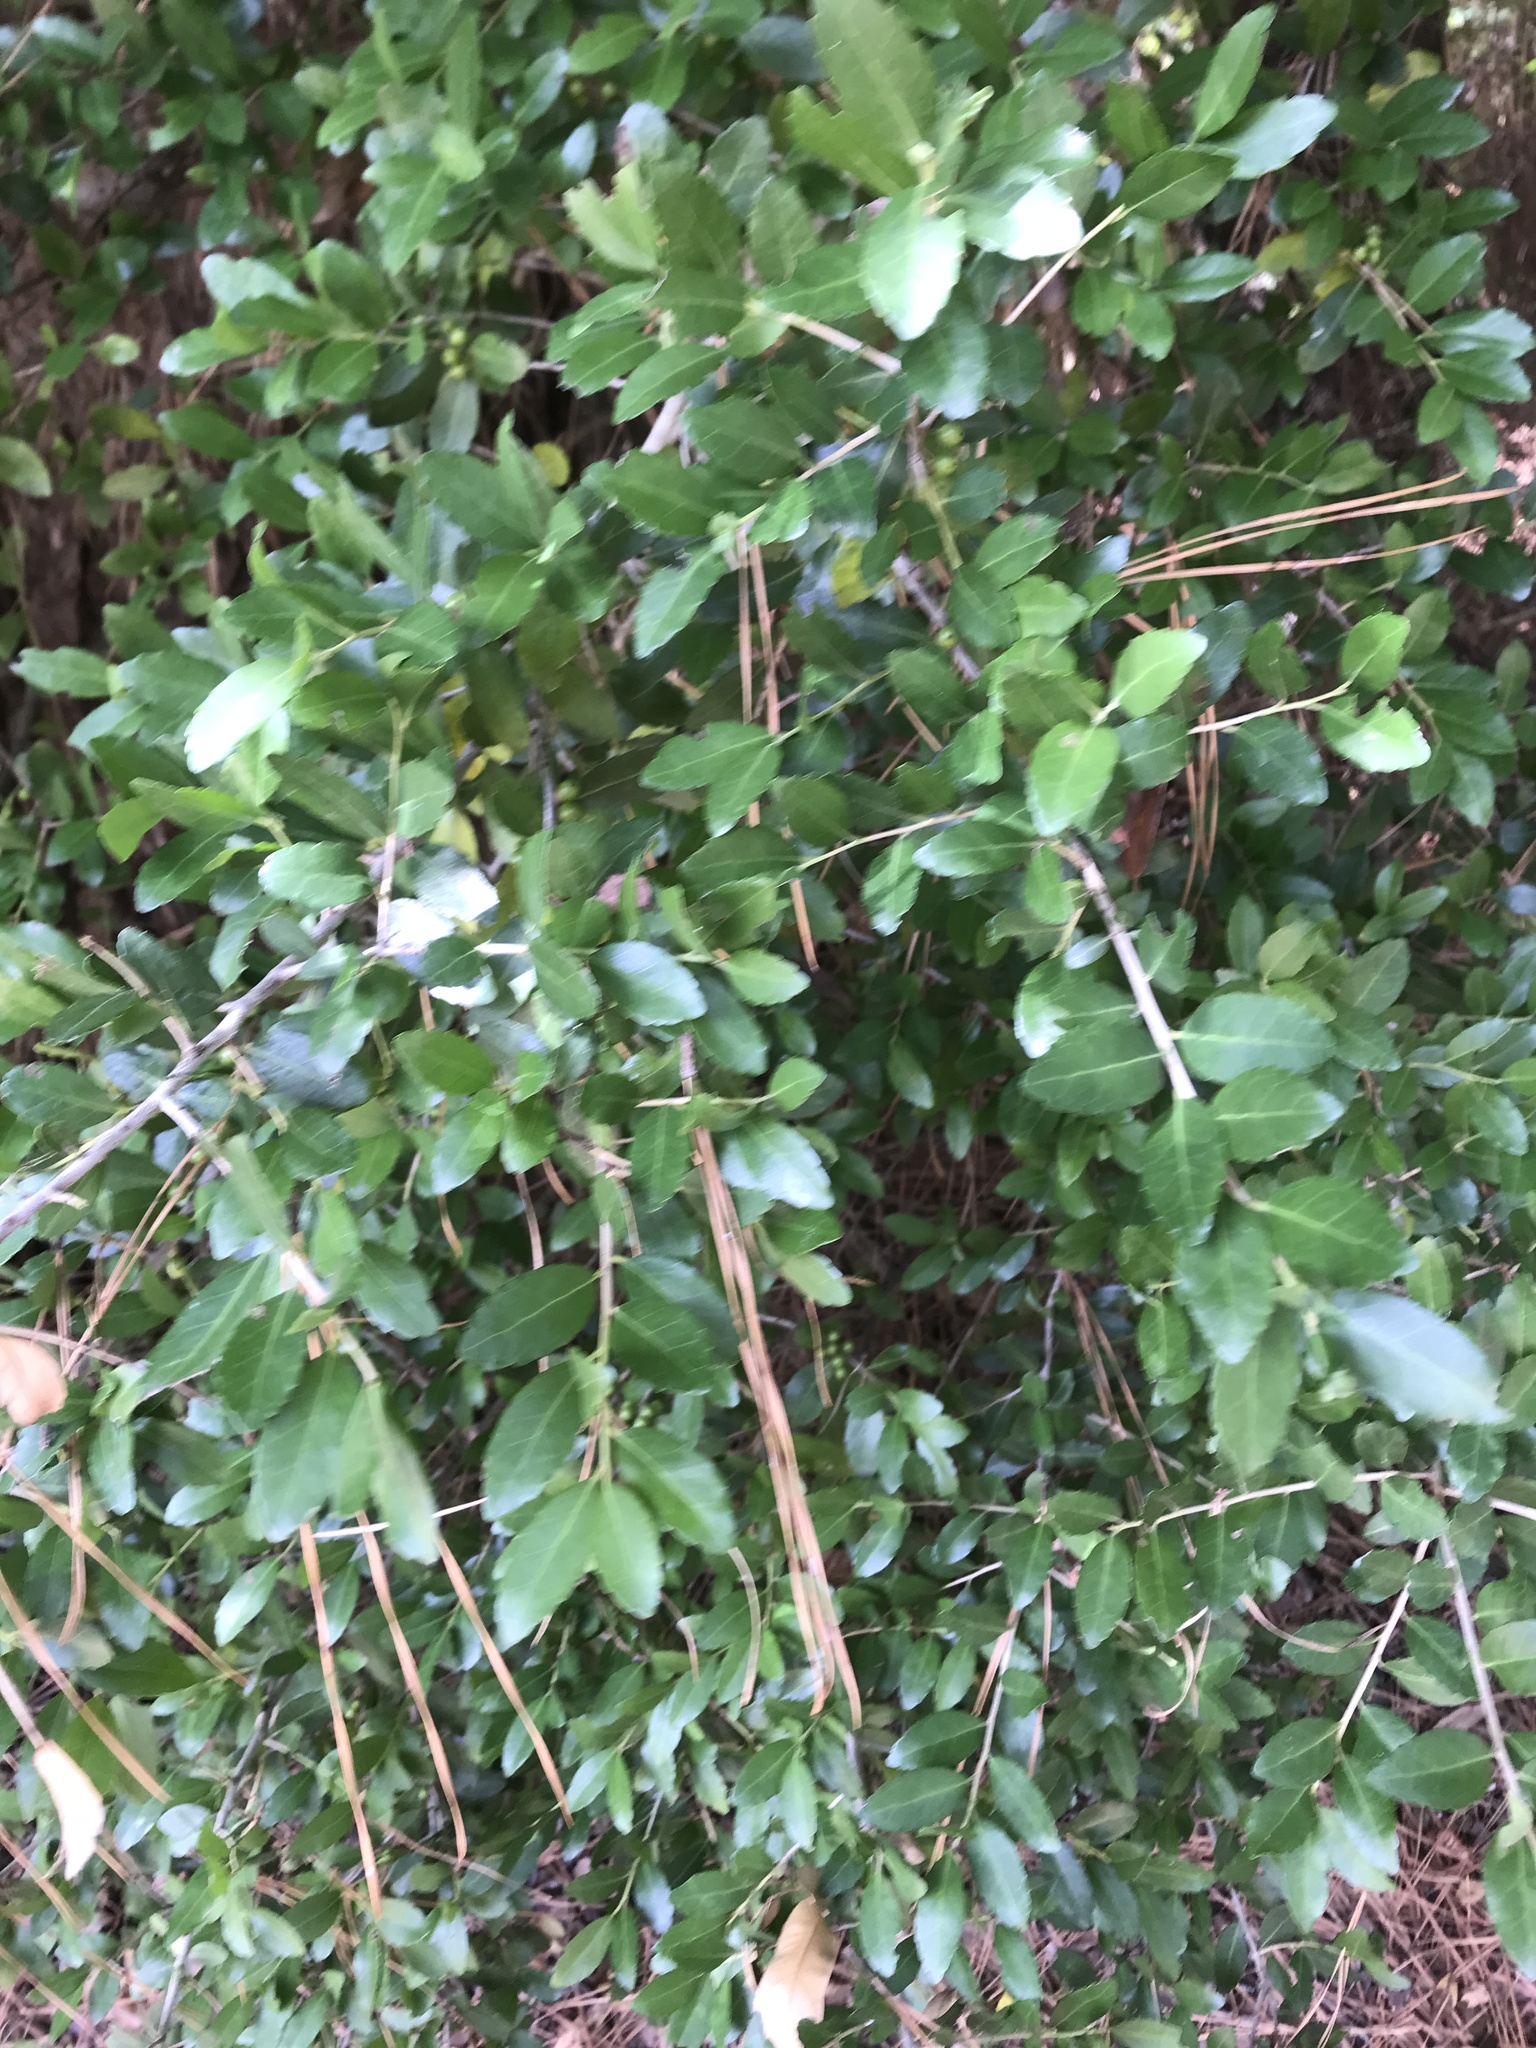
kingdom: Plantae
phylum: Tracheophyta
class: Magnoliopsida
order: Aquifoliales
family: Aquifoliaceae
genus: Ilex
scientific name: Ilex vomitoria
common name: Yaupon holly
